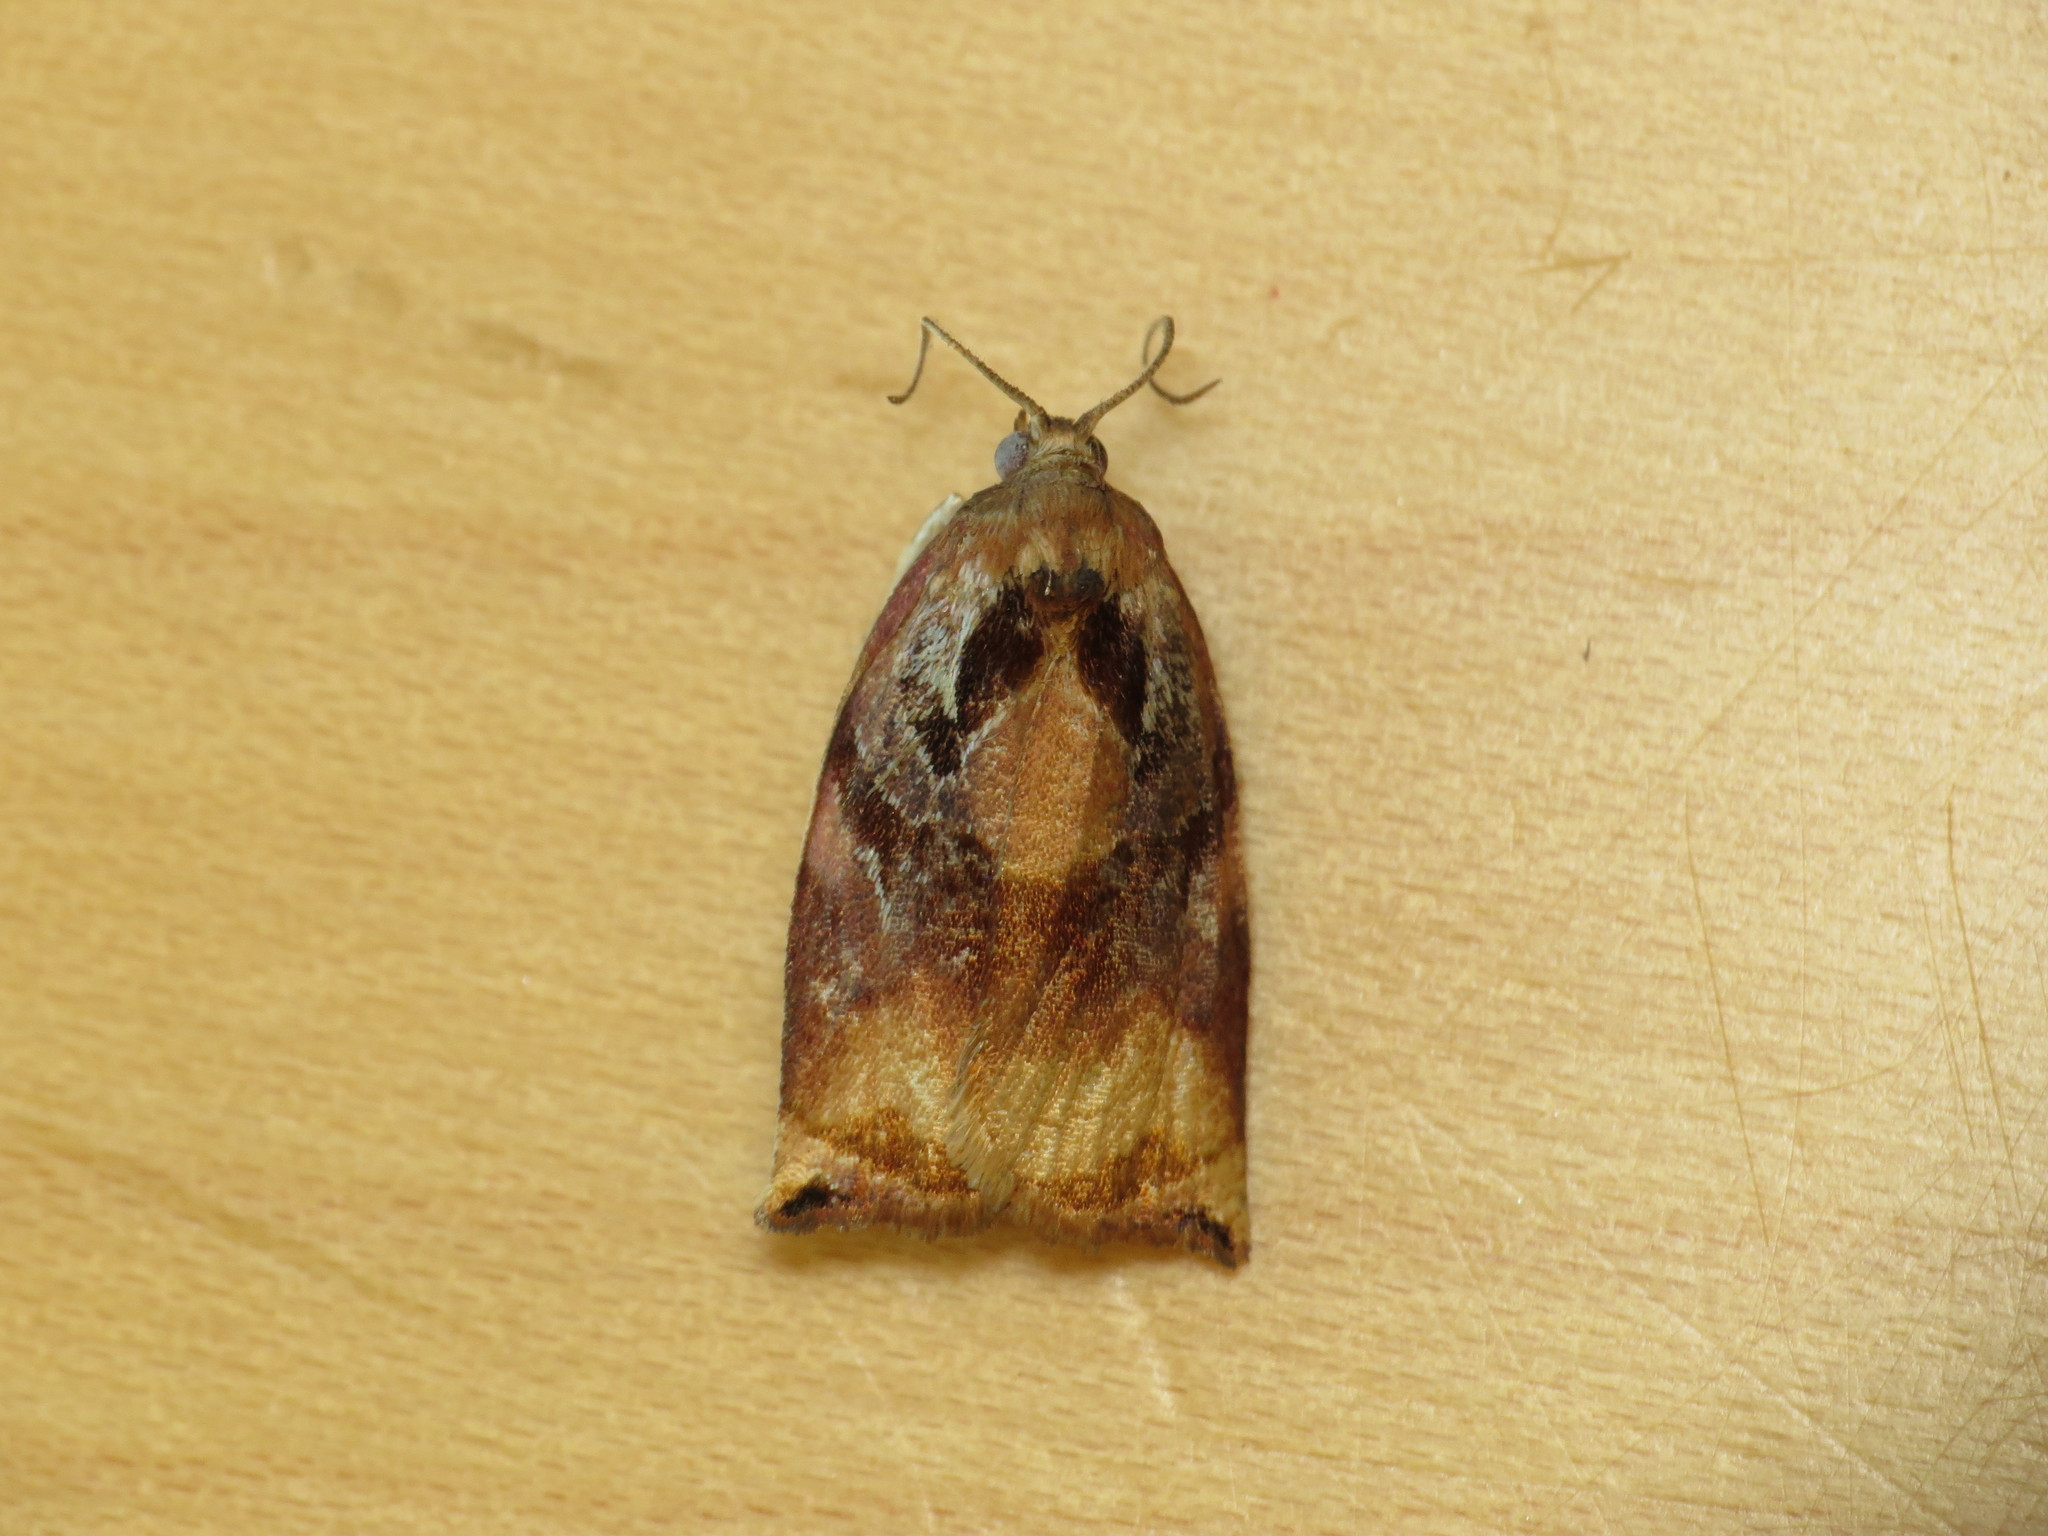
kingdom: Animalia
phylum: Arthropoda
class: Insecta
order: Lepidoptera
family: Tortricidae
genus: Ditula
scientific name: Ditula angustiorana
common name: Red-barred tortrix
